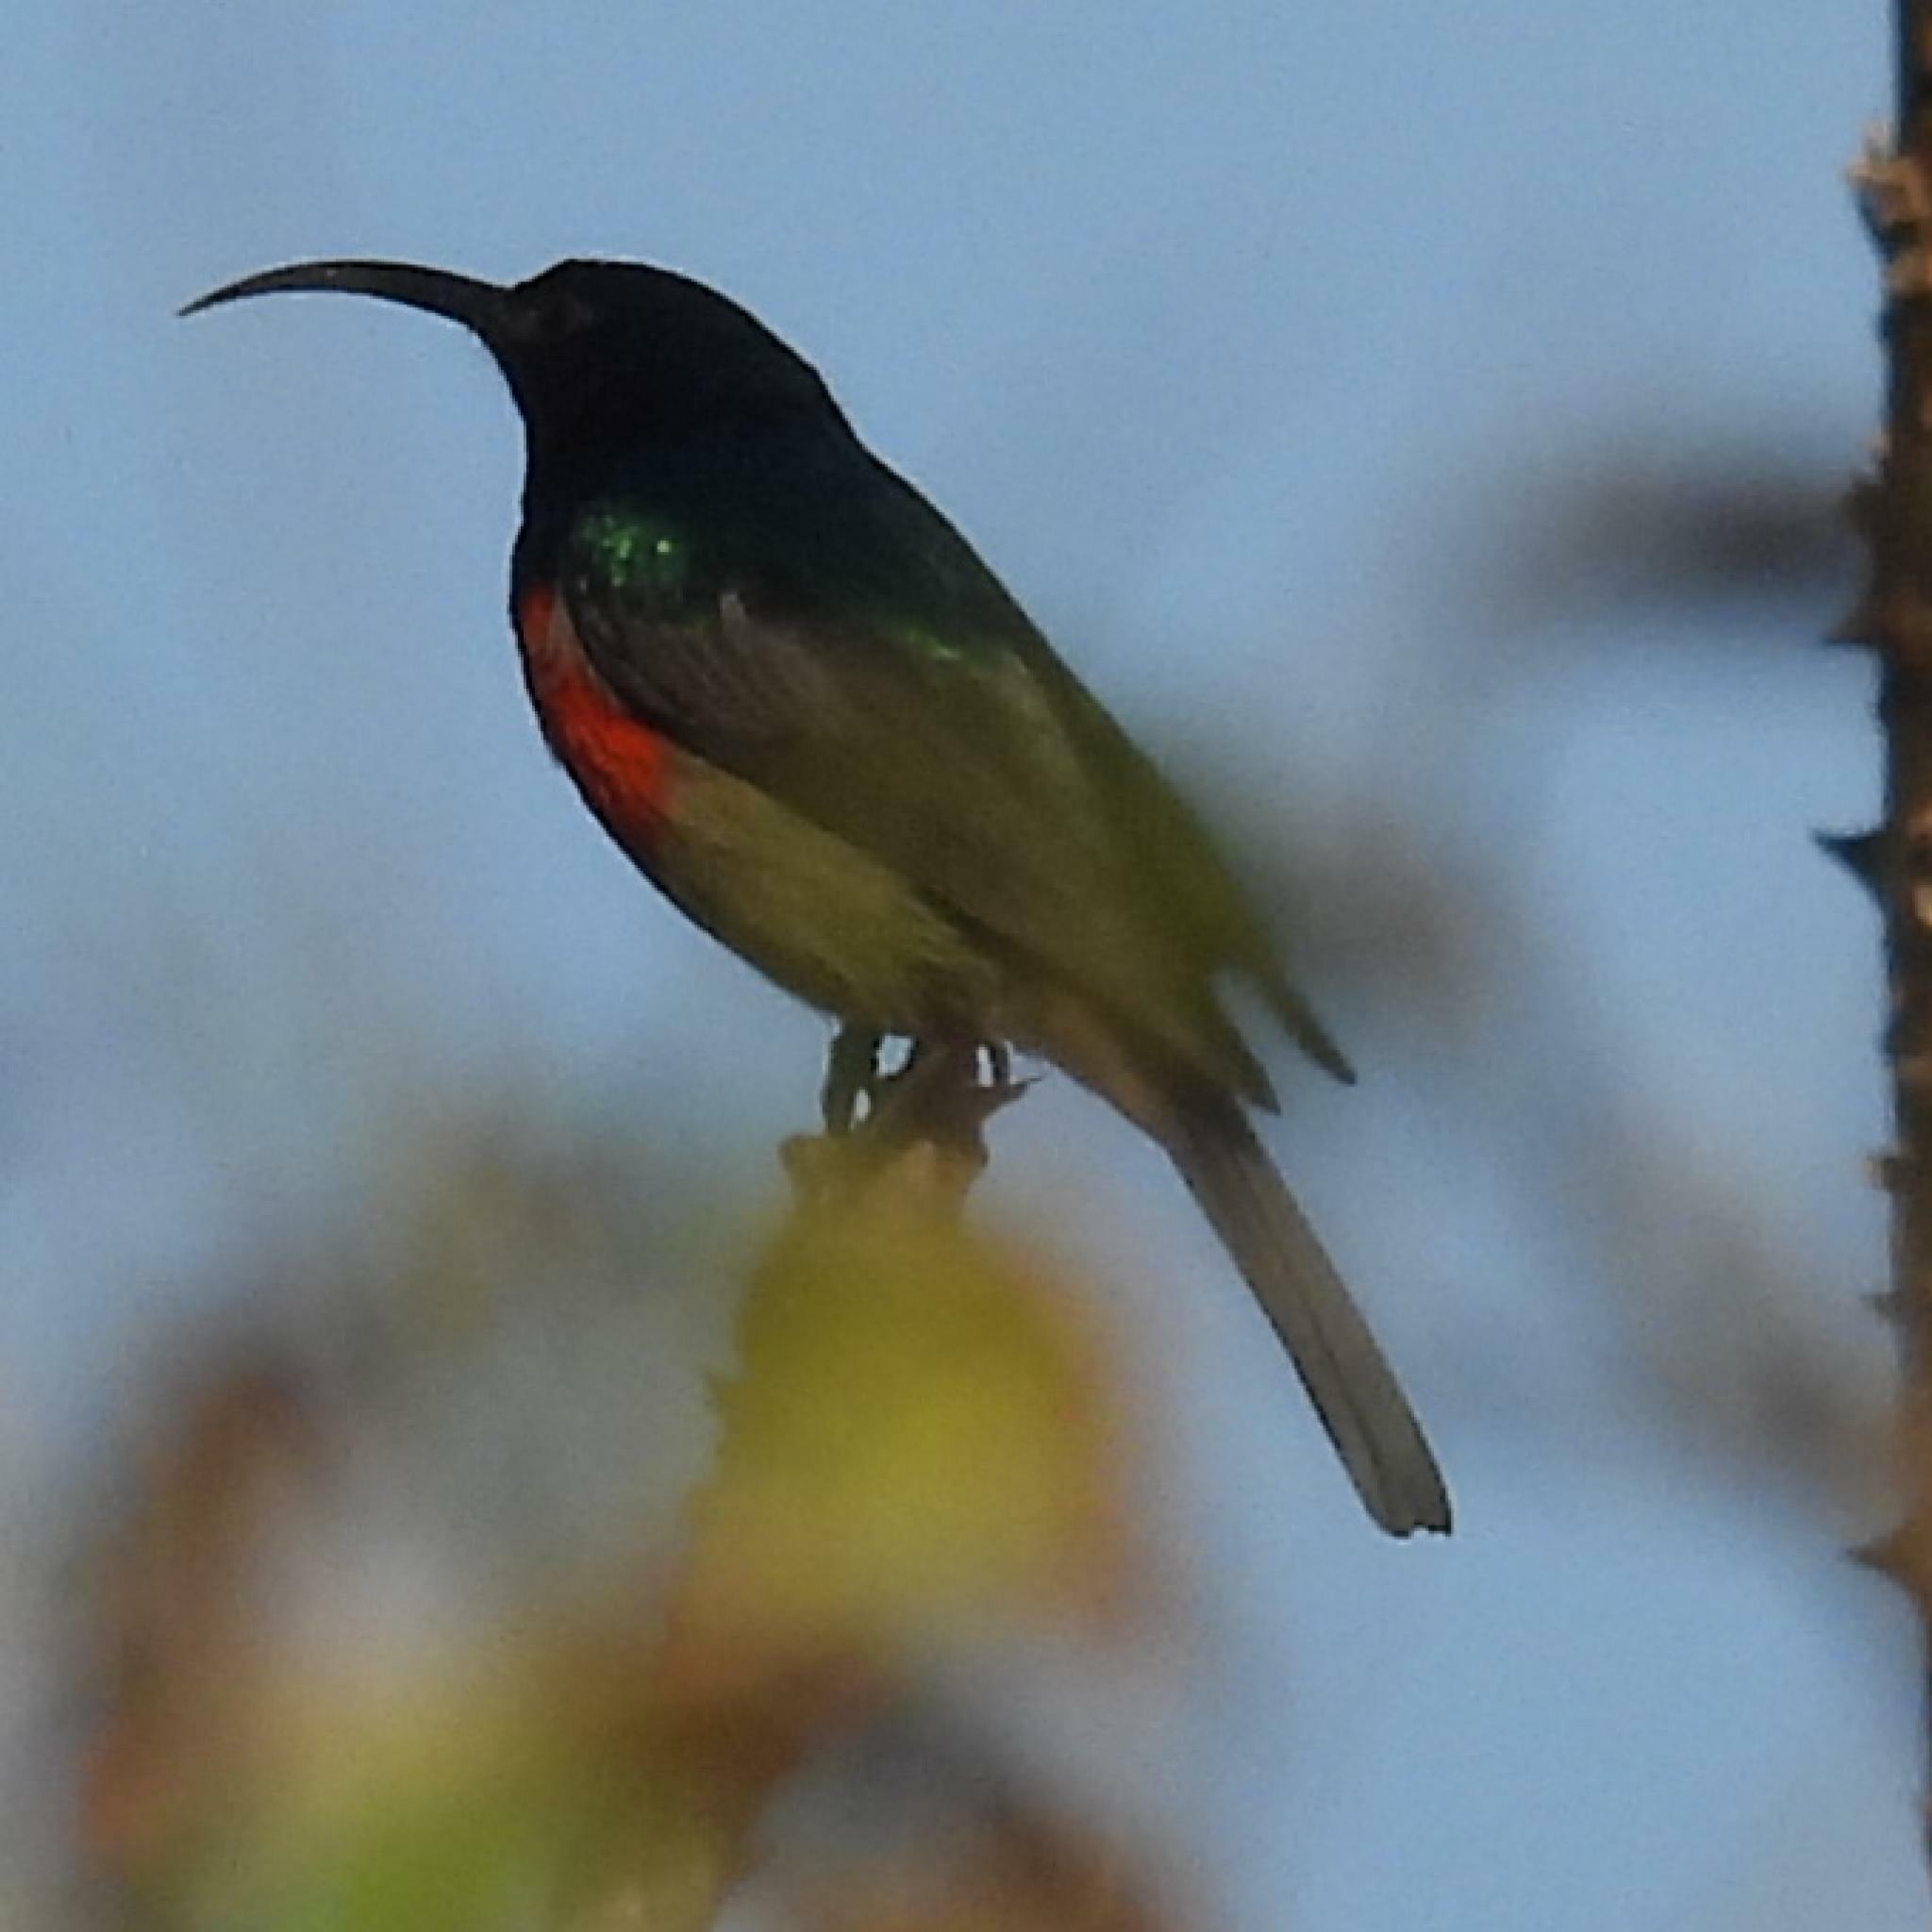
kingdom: Animalia
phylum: Chordata
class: Aves
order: Passeriformes
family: Nectariniidae
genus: Cinnyris
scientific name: Cinnyris afer
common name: Greater double-collared sunbird
